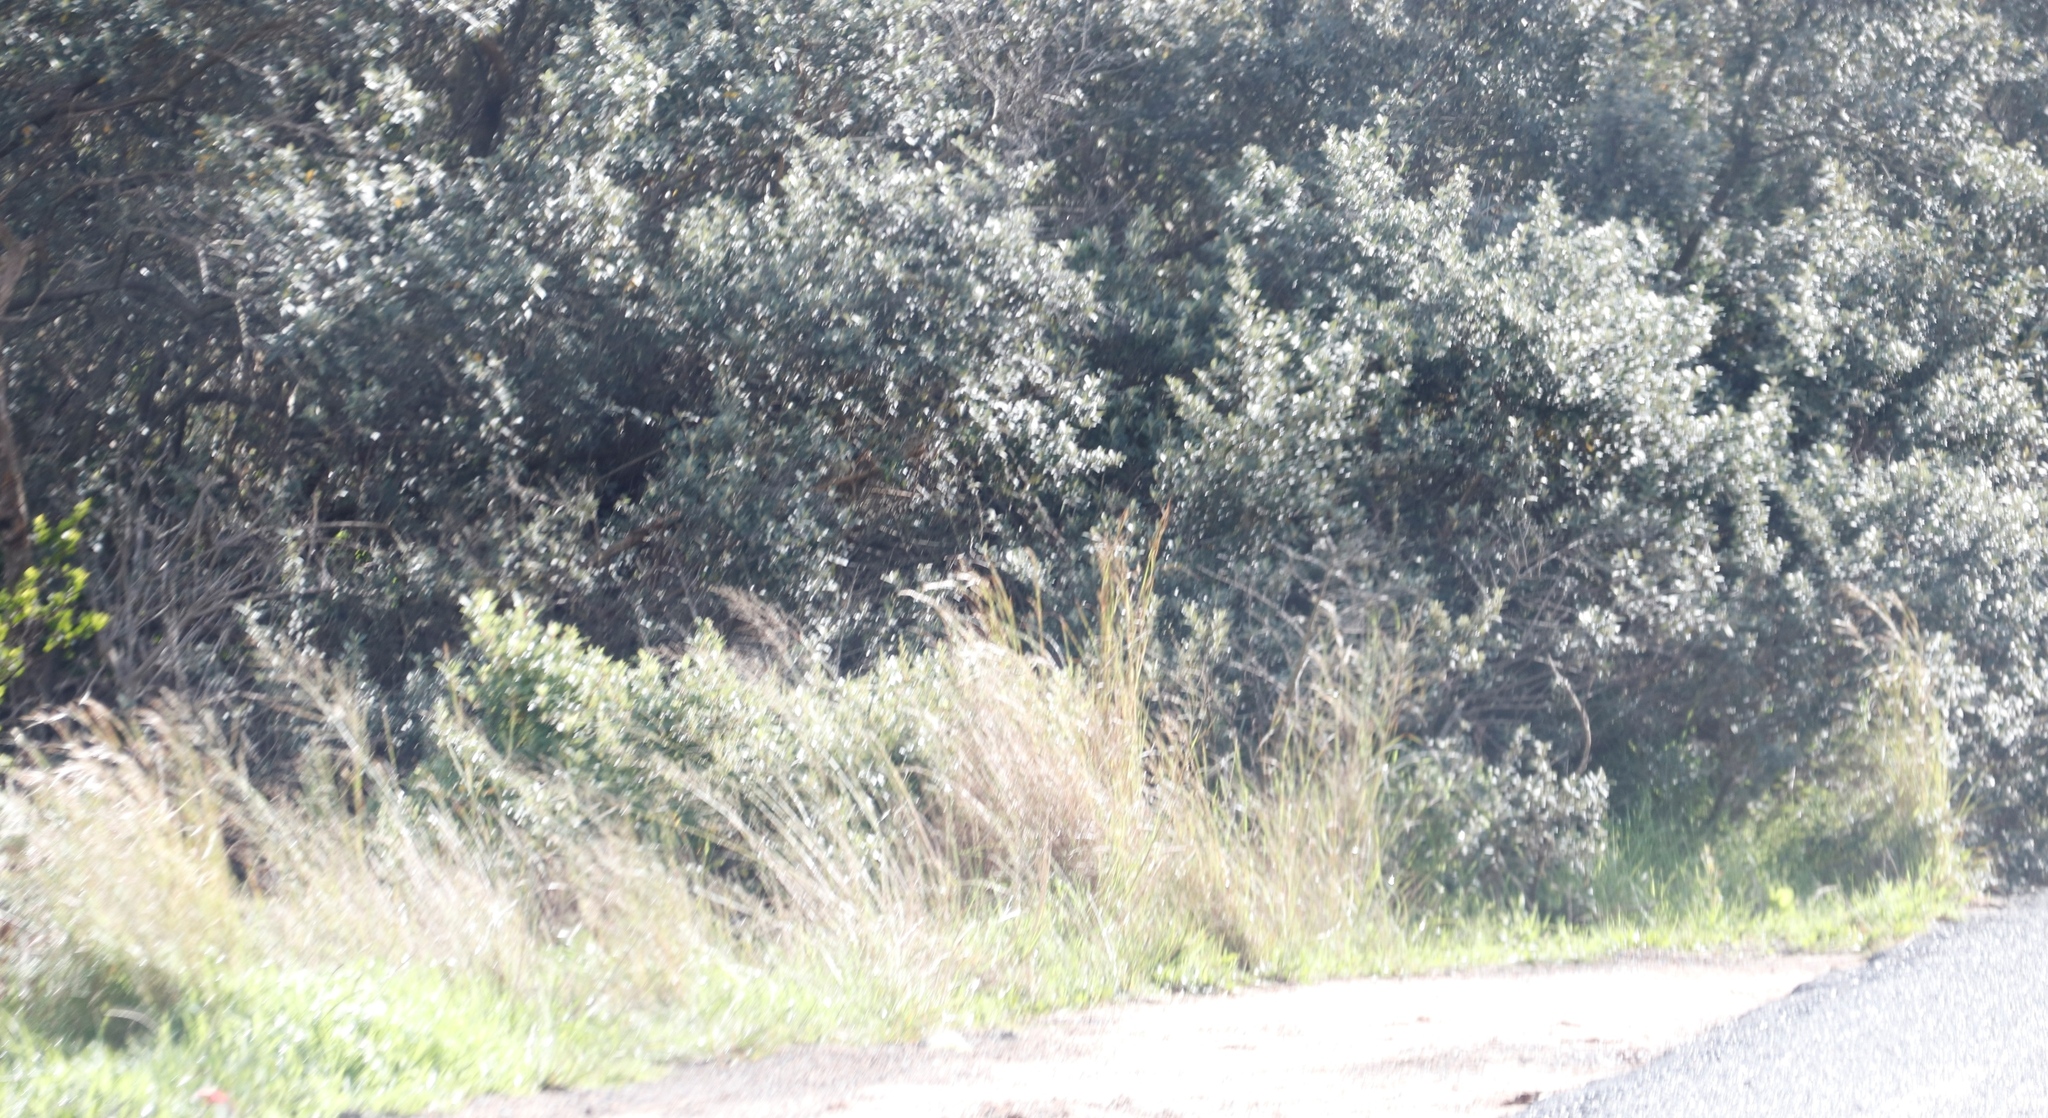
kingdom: Plantae
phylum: Tracheophyta
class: Liliopsida
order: Poales
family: Poaceae
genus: Hyparrhenia
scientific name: Hyparrhenia hirta
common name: Thatching grass
